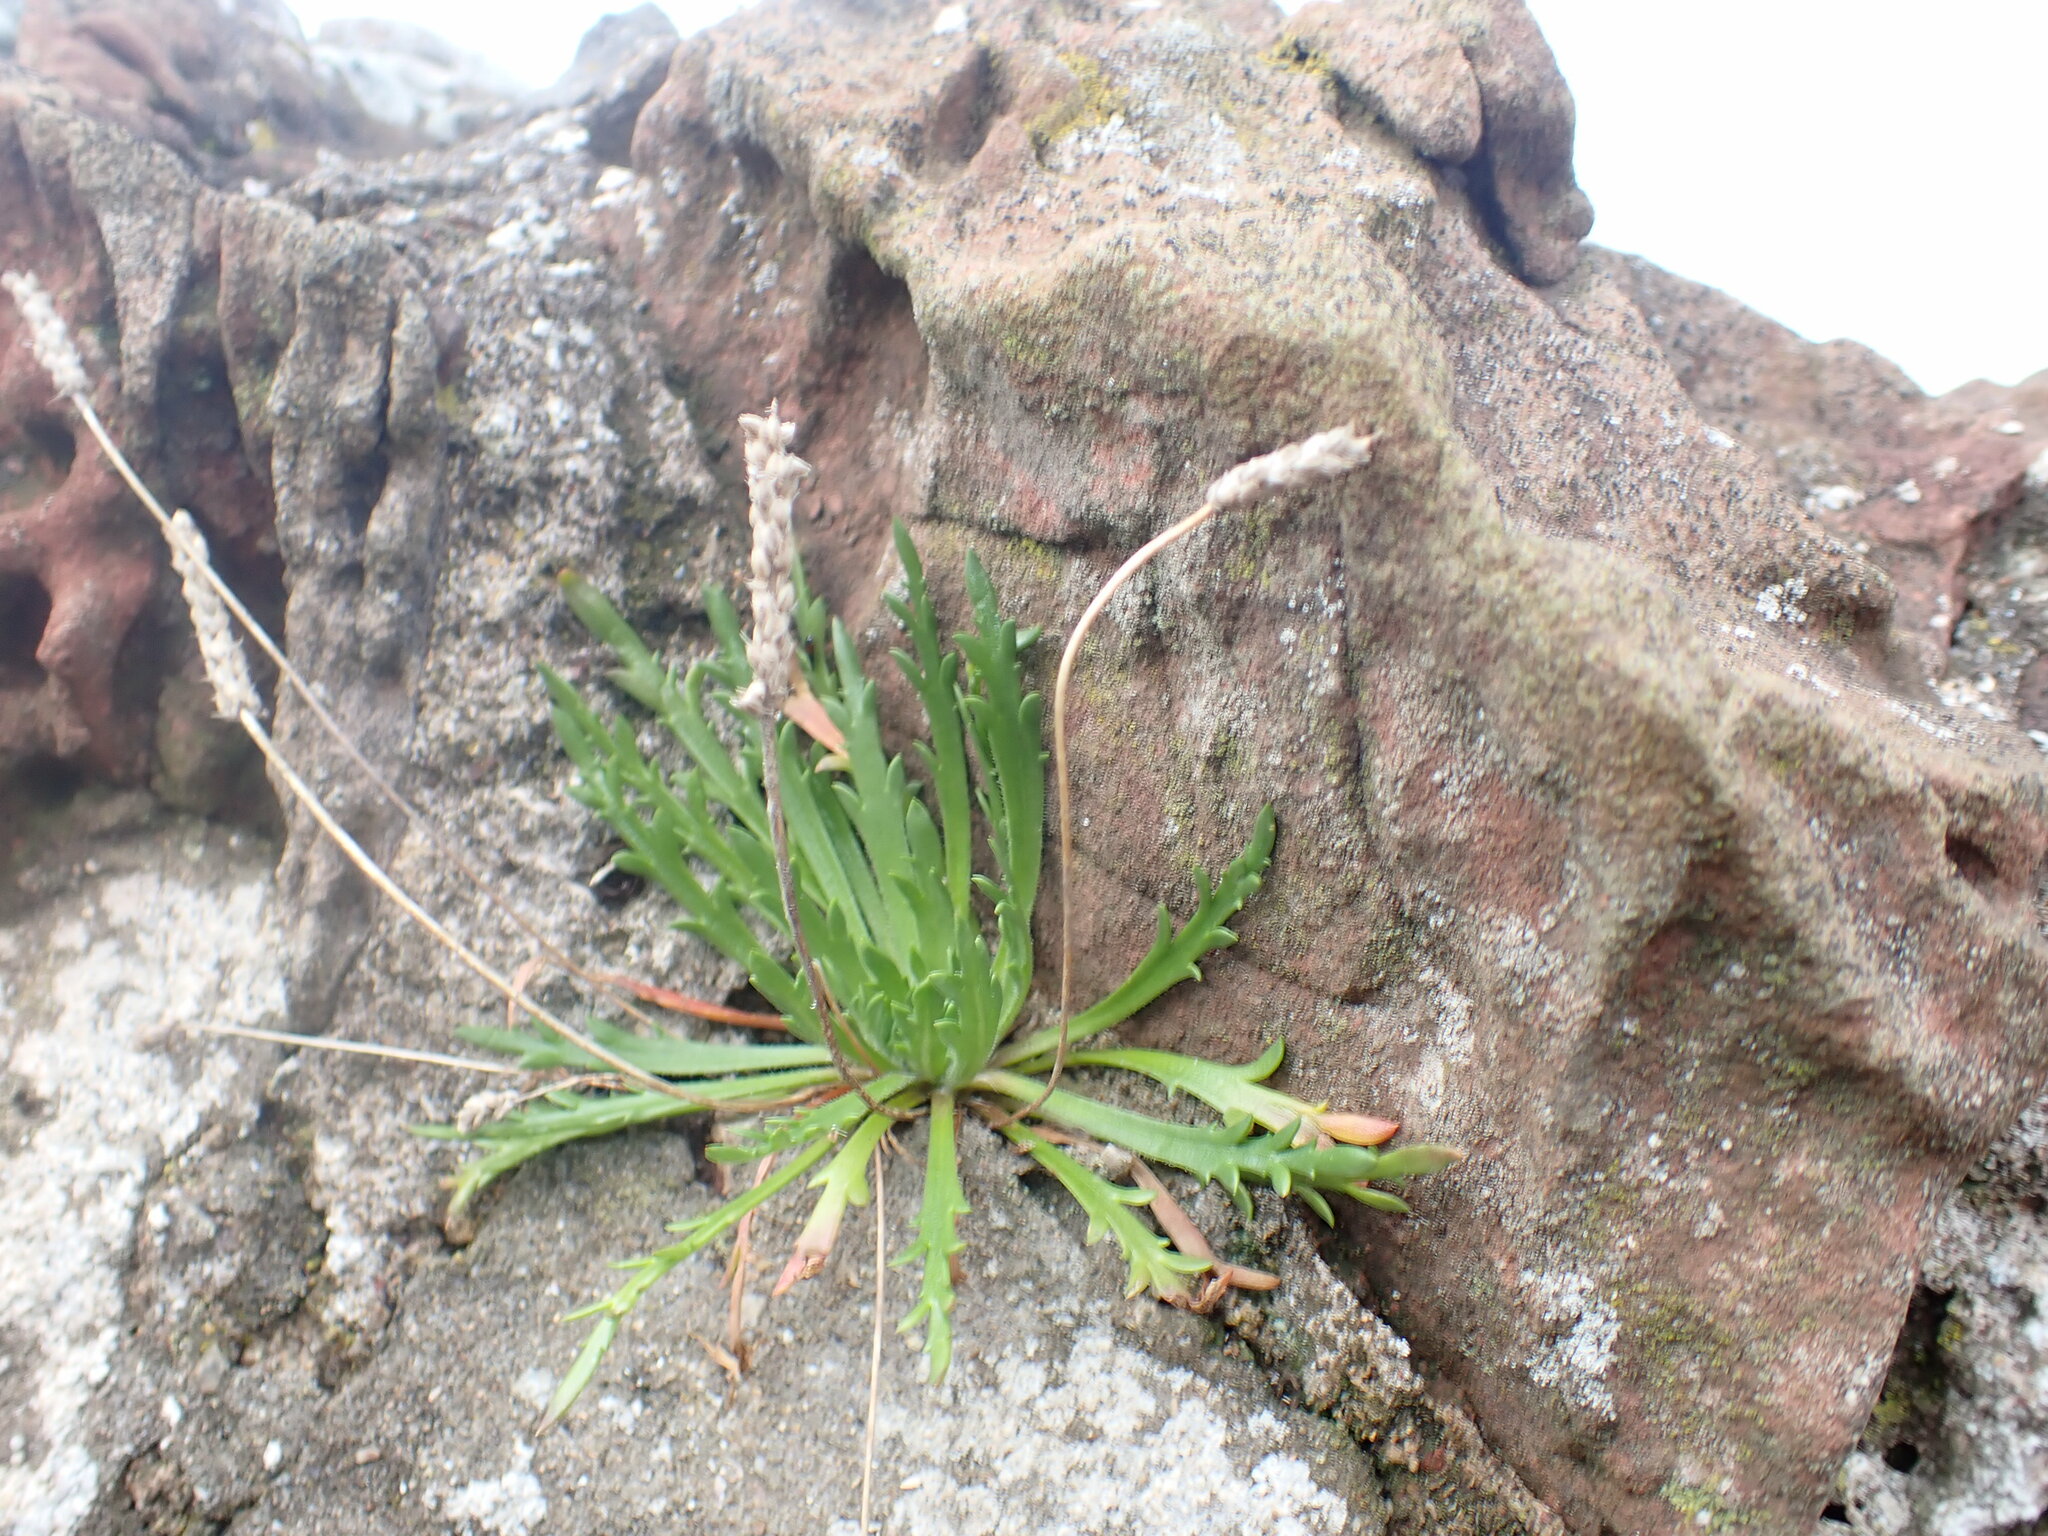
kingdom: Plantae
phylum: Tracheophyta
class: Magnoliopsida
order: Lamiales
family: Plantaginaceae
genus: Plantago
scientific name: Plantago coronopus
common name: Buck's-horn plantain
